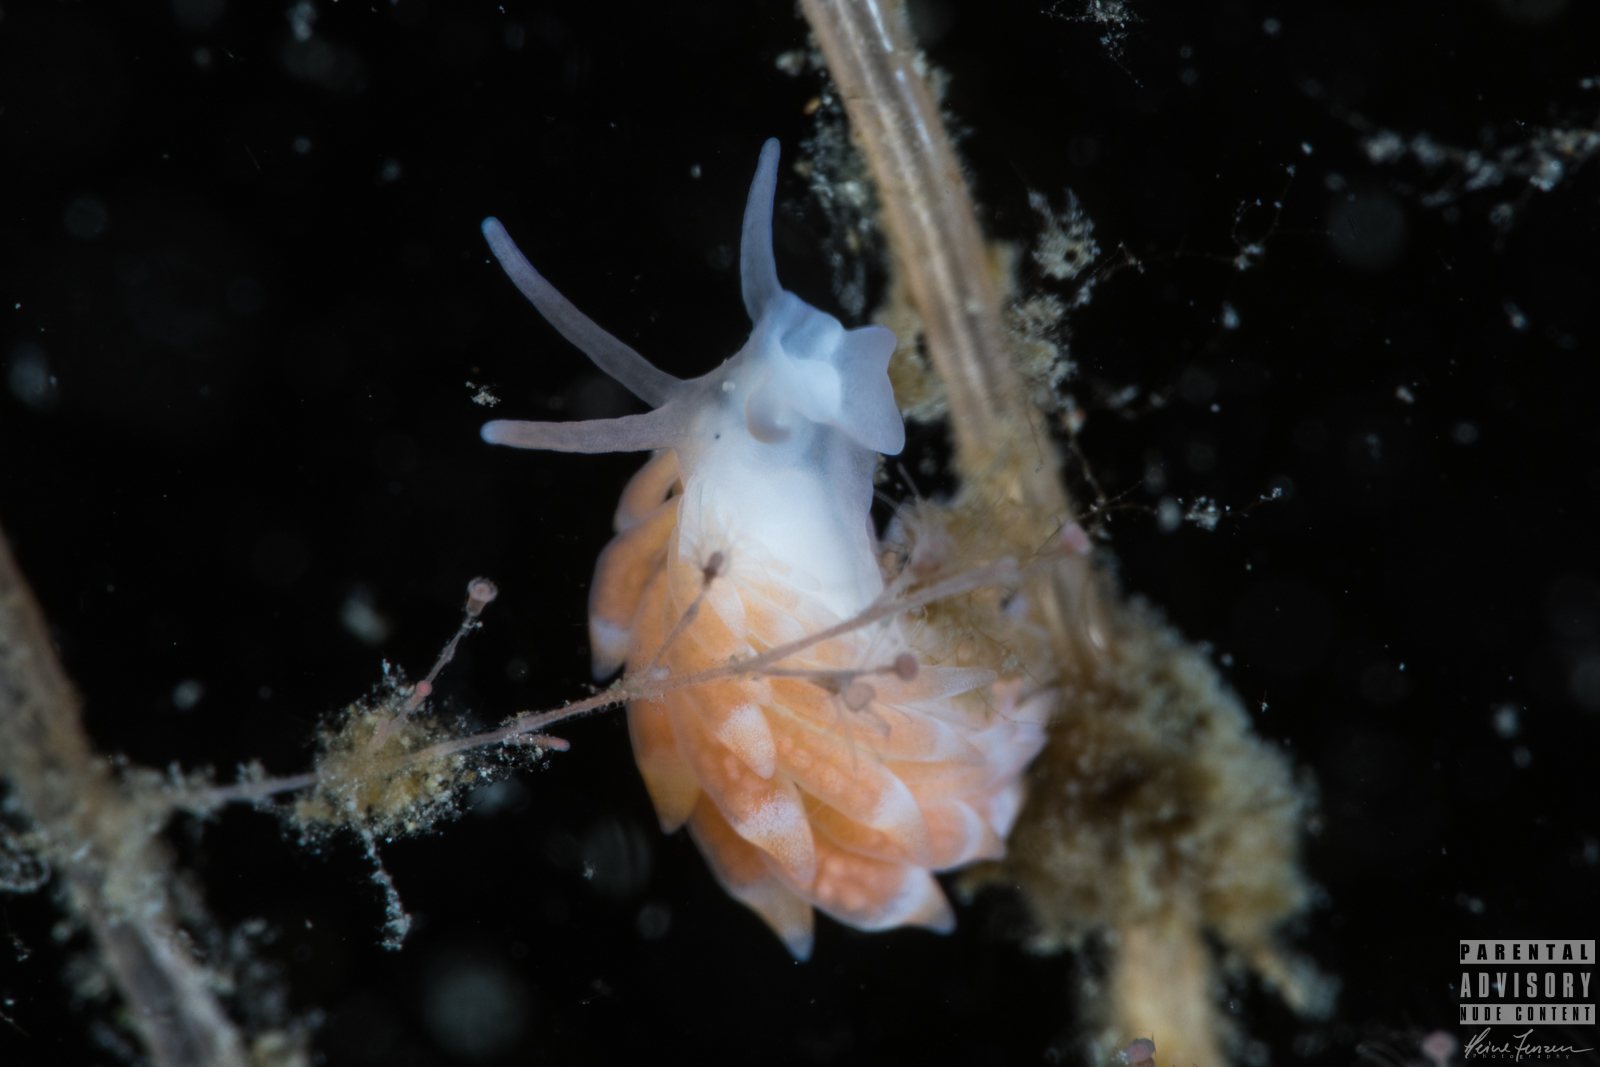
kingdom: Animalia
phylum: Mollusca
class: Gastropoda
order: Nudibranchia
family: Trinchesiidae
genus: Catriona
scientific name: Catriona aurantia
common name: Corange-tip cuthona
